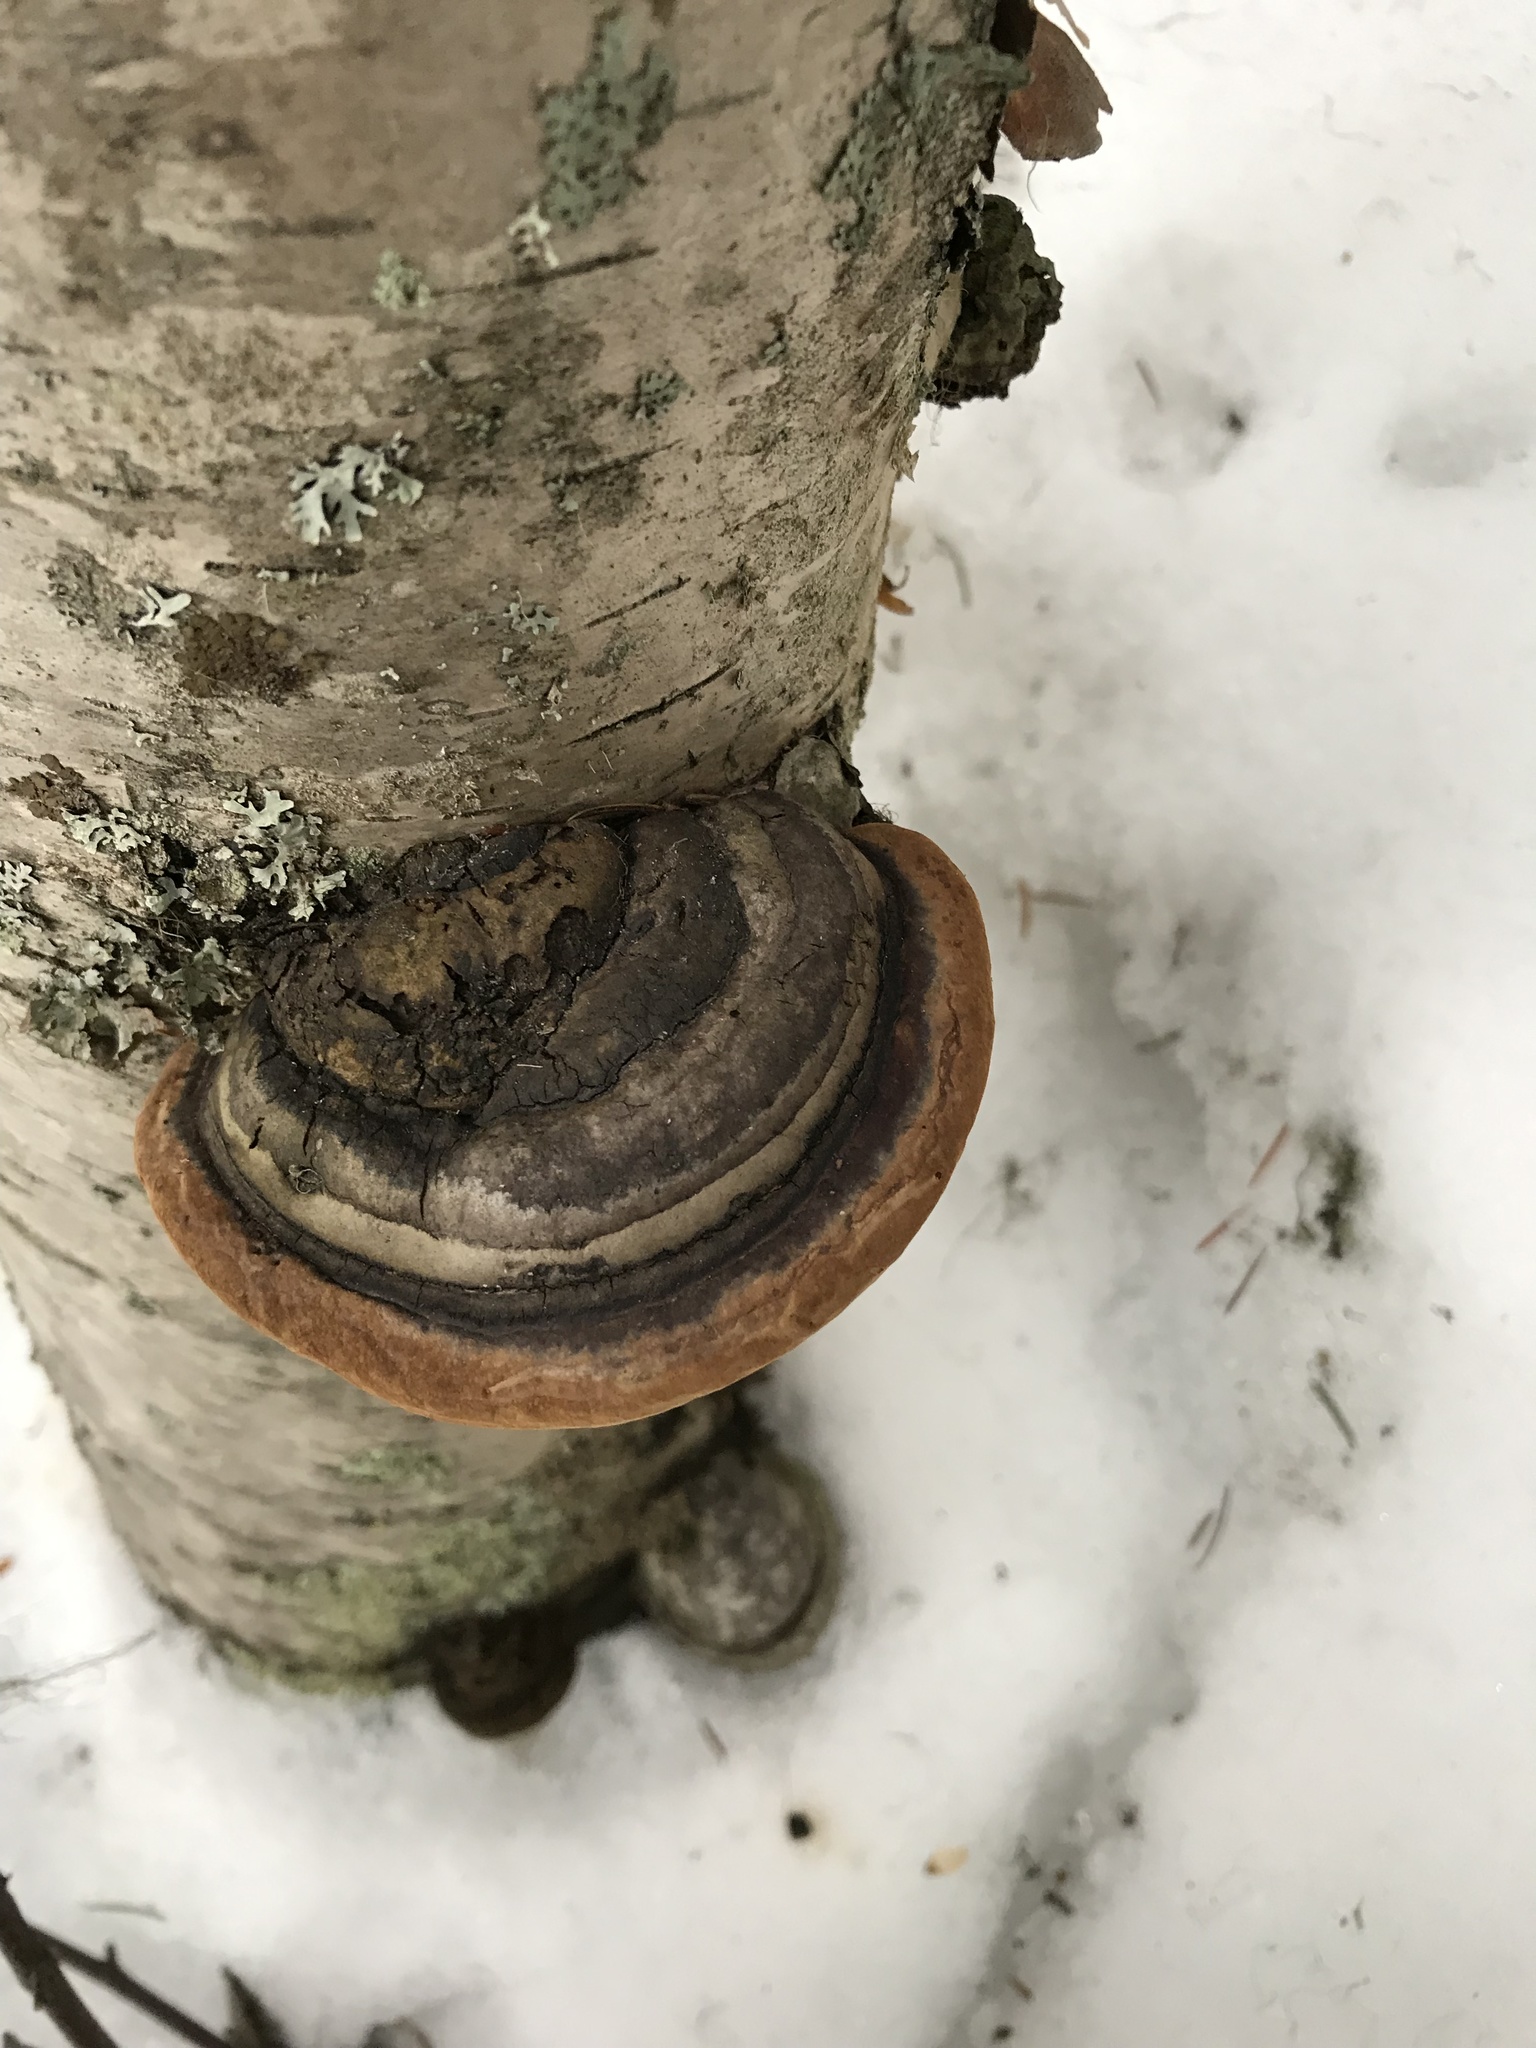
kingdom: Fungi
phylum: Basidiomycota
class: Agaricomycetes
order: Polyporales
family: Fomitopsidaceae
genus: Fomitopsis
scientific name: Fomitopsis mounceae
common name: Northern red belt
